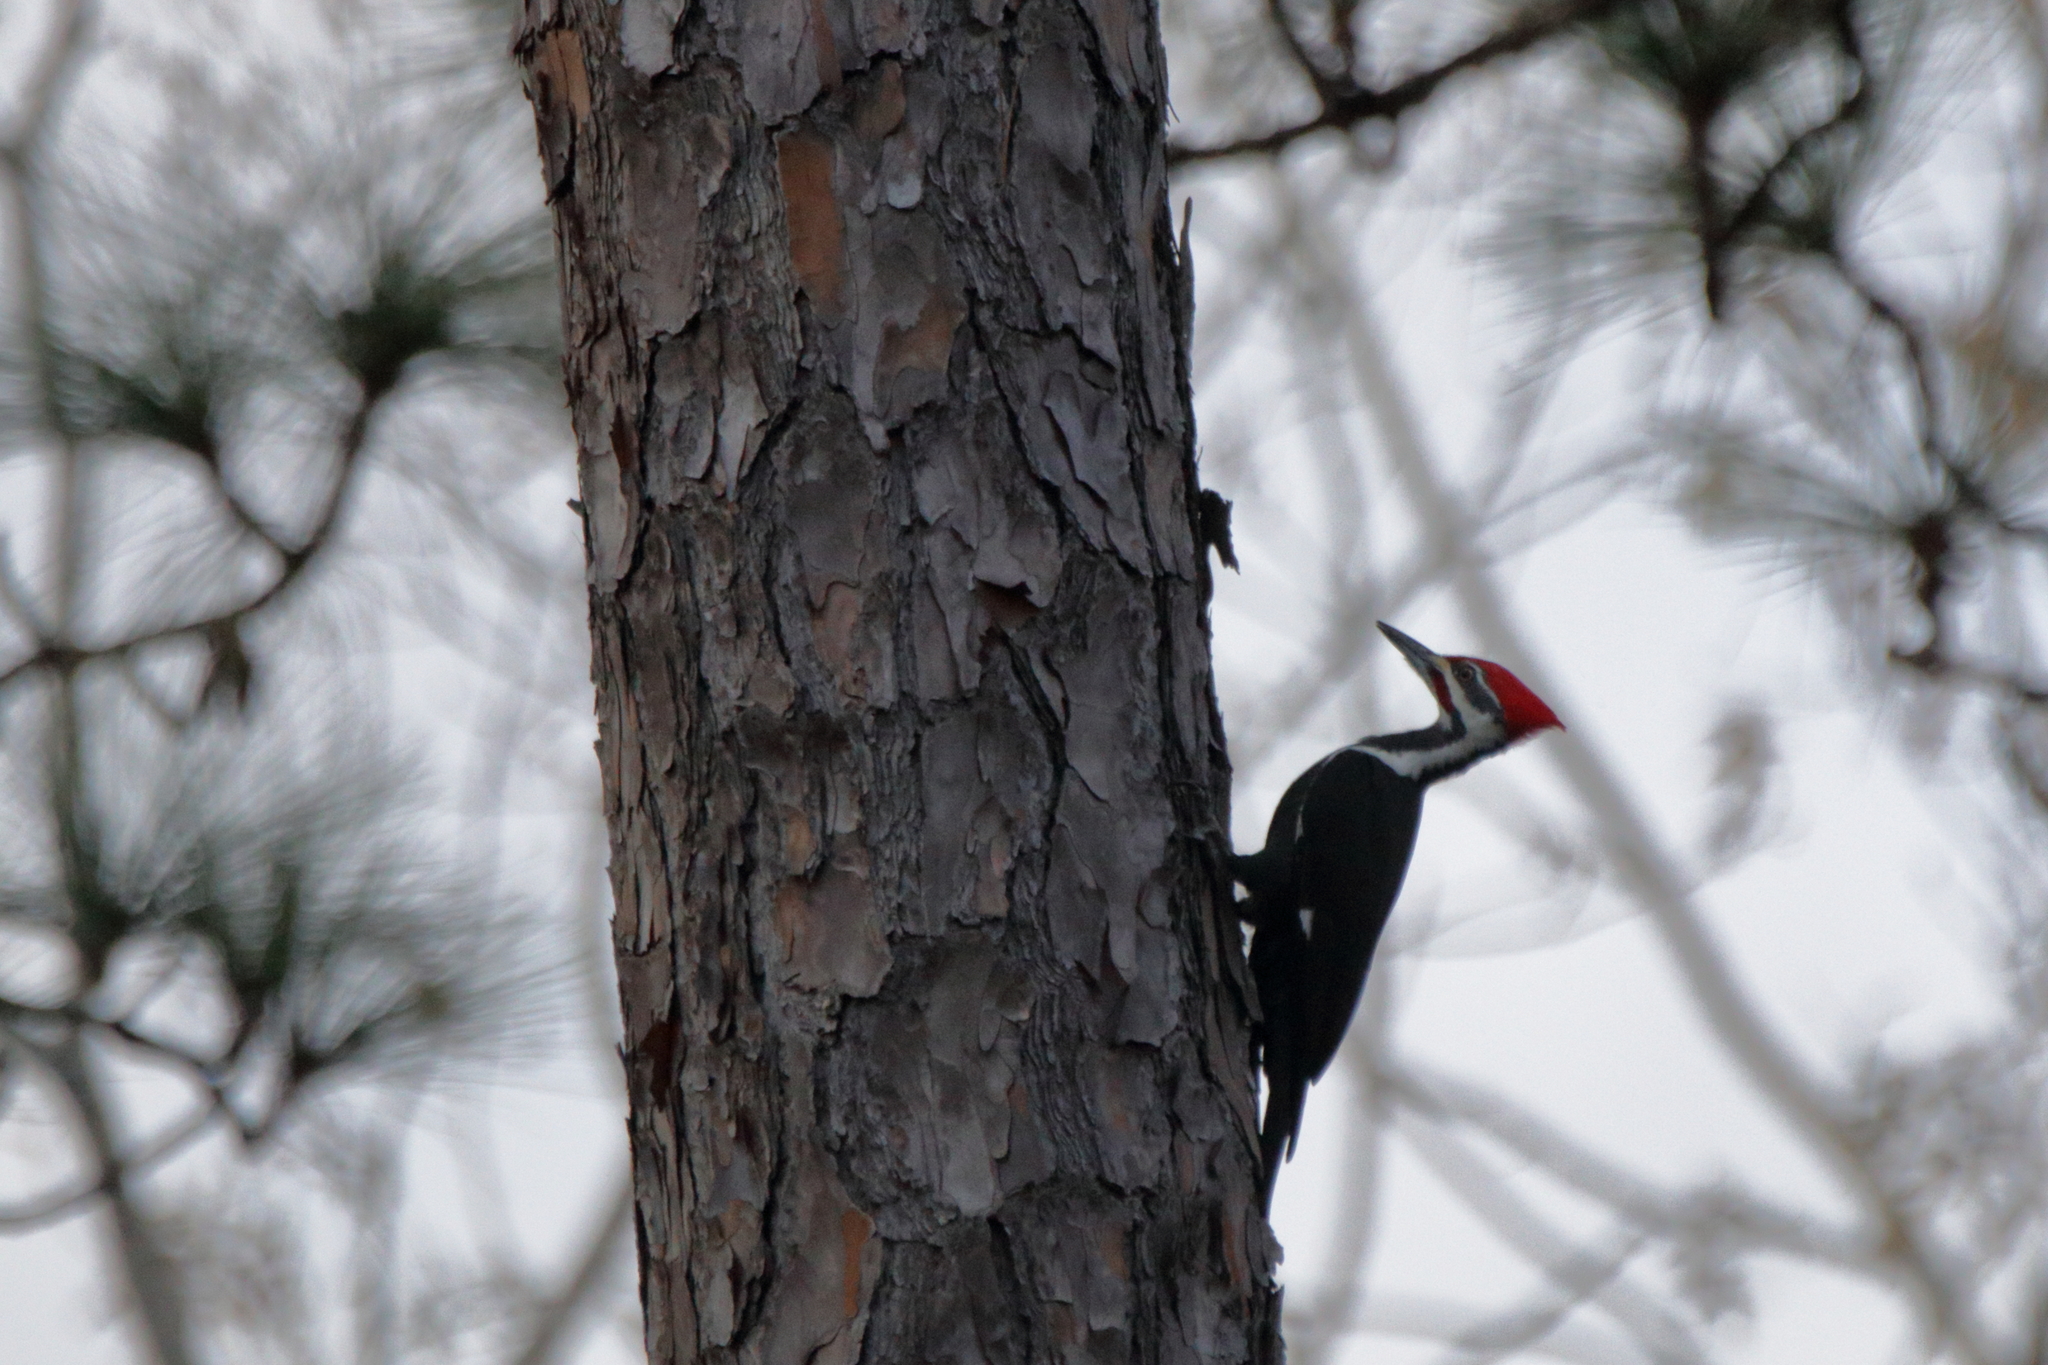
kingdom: Animalia
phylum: Chordata
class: Aves
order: Piciformes
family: Picidae
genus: Dryocopus
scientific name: Dryocopus pileatus
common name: Pileated woodpecker
